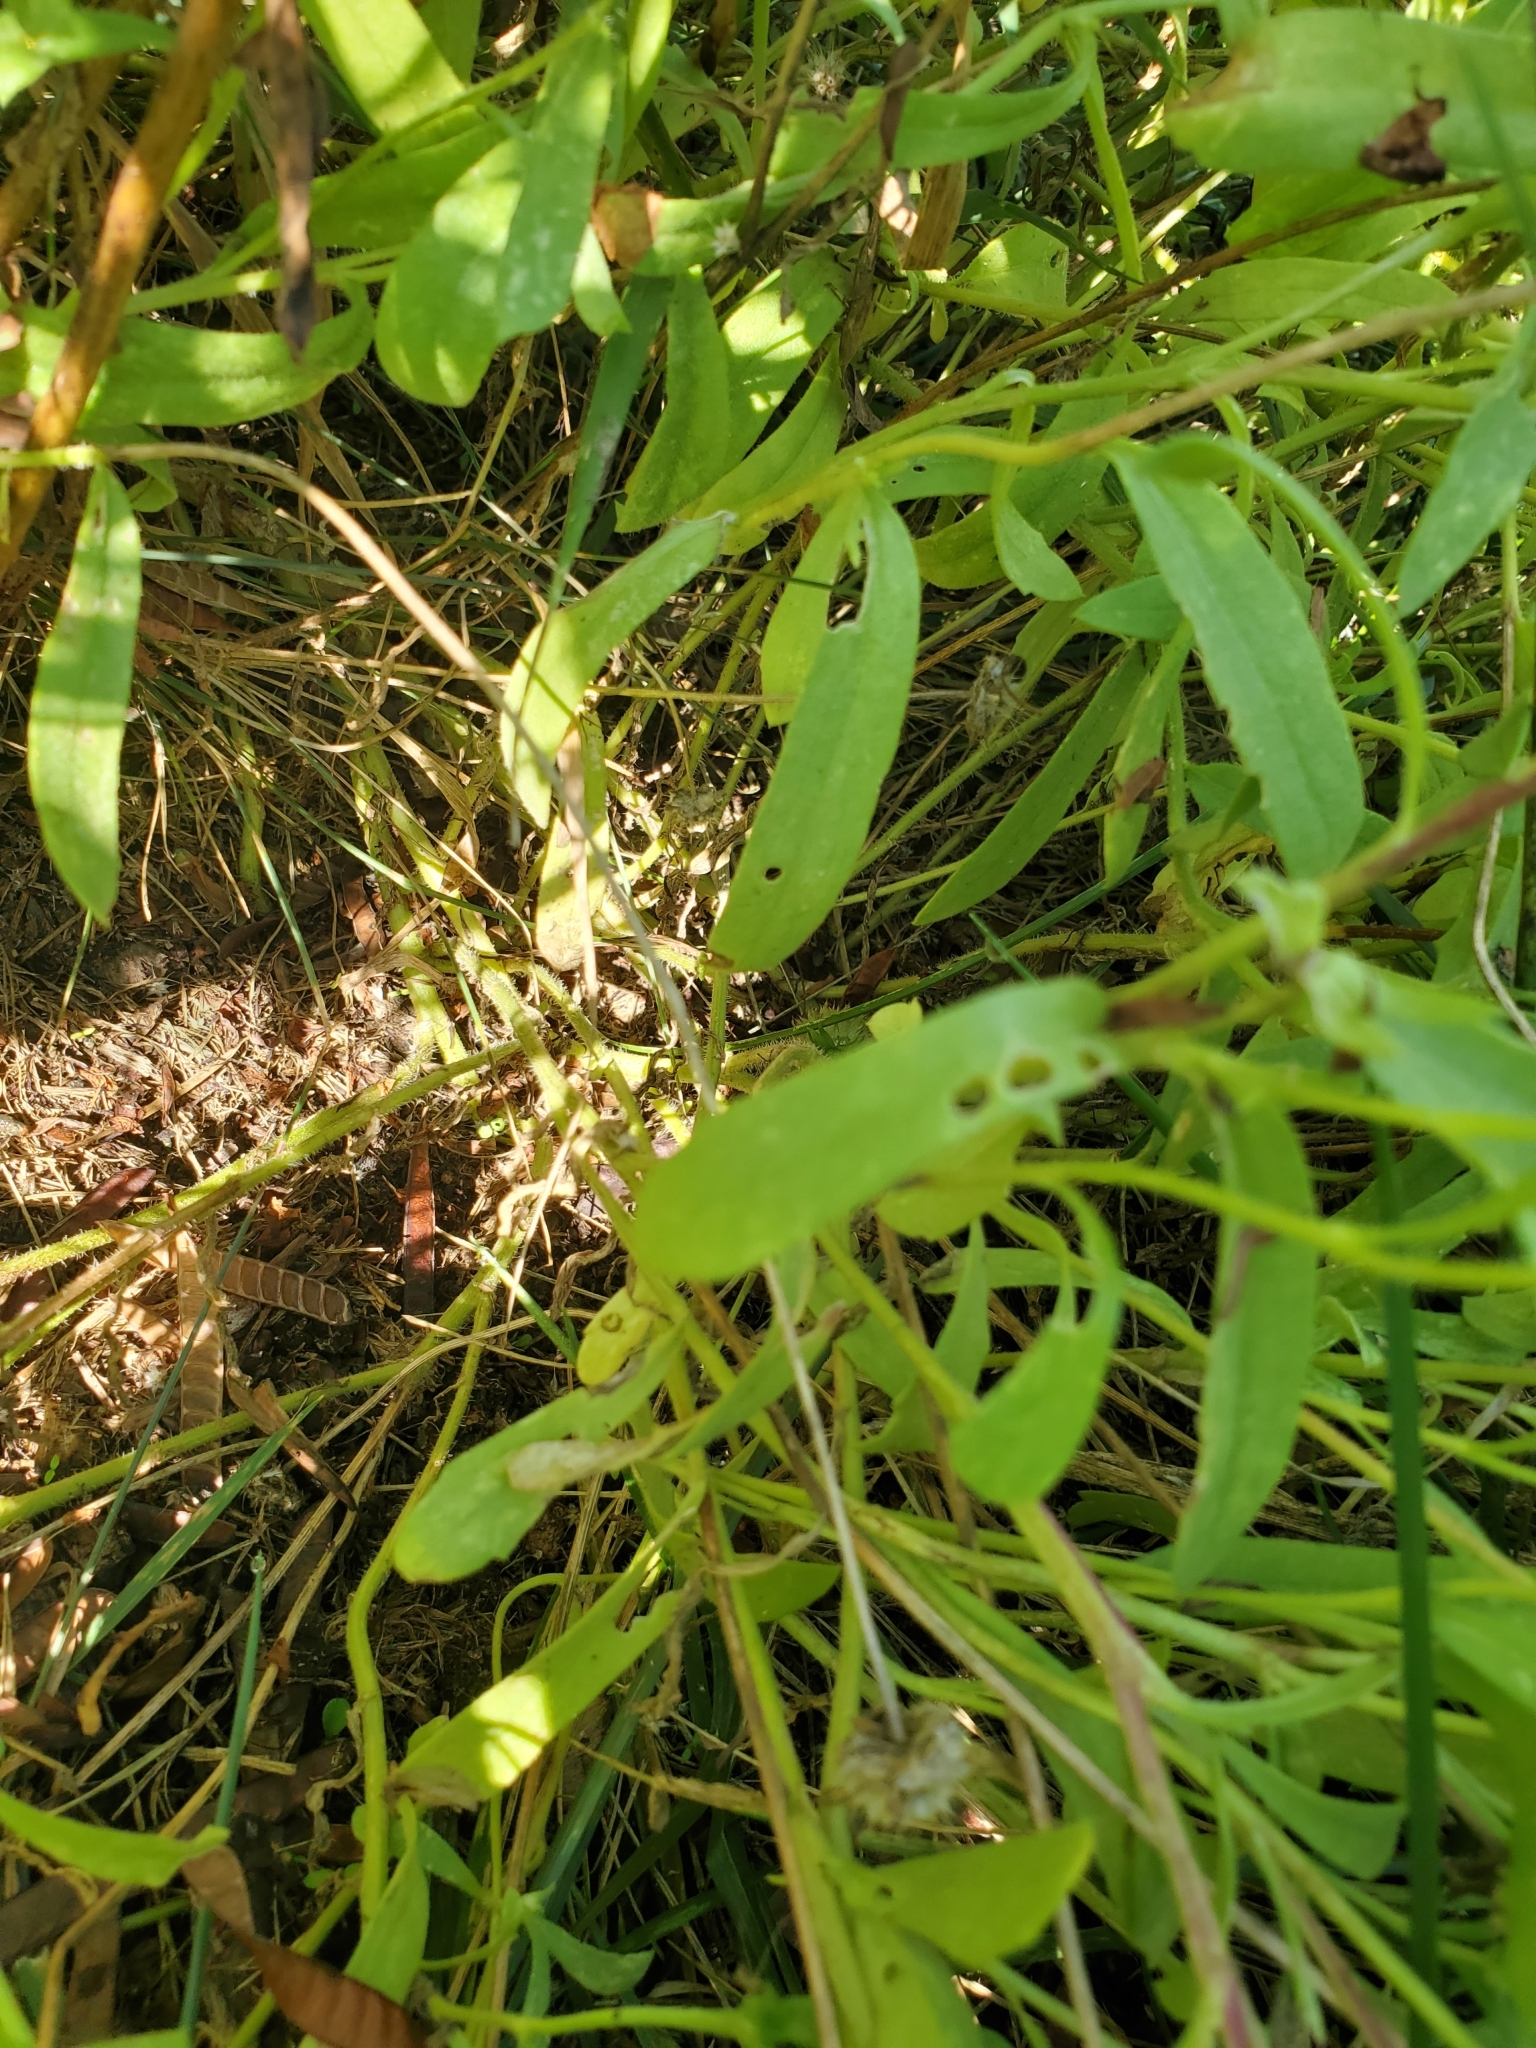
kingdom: Plantae
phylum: Tracheophyta
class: Magnoliopsida
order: Asterales
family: Asteraceae
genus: Gaillardia
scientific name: Gaillardia pulchella
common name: Firewheel
